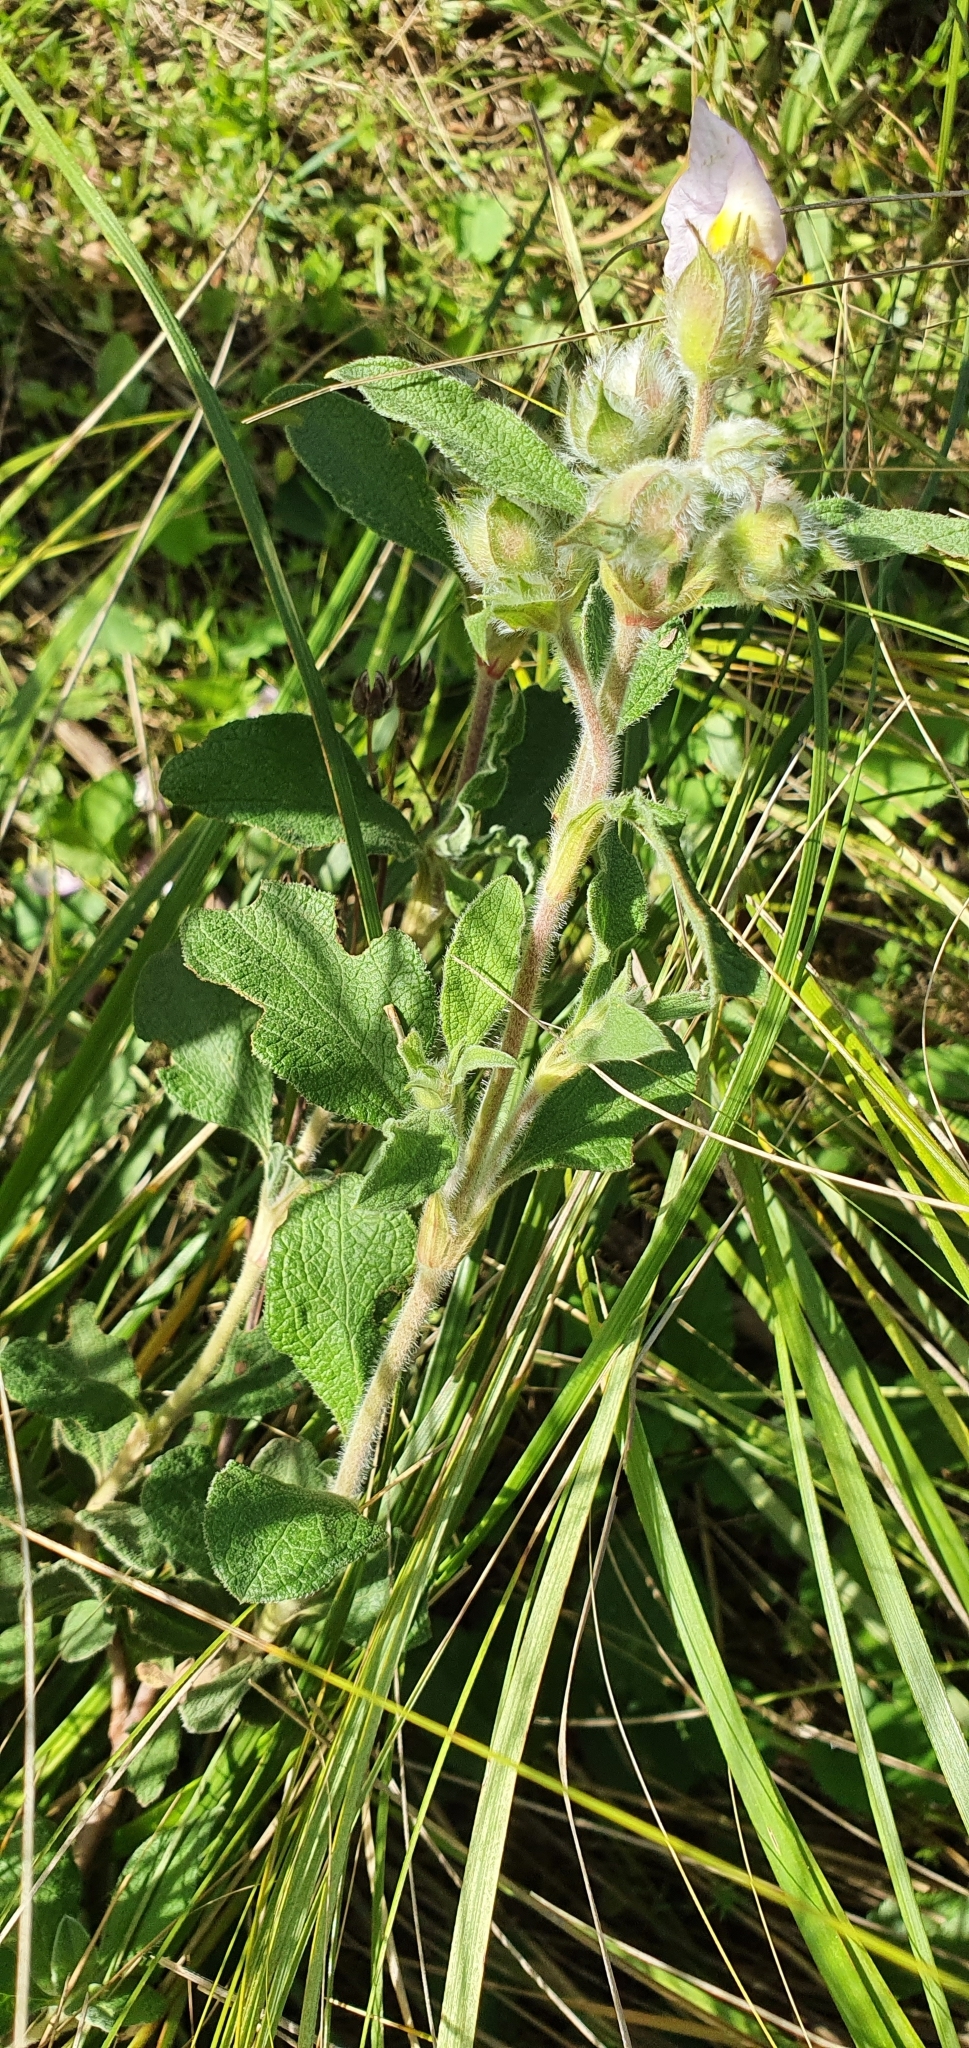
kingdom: Plantae
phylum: Tracheophyta
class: Magnoliopsida
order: Malvales
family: Cistaceae
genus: Cistus
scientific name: Cistus creticus
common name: Cretan rockrose
